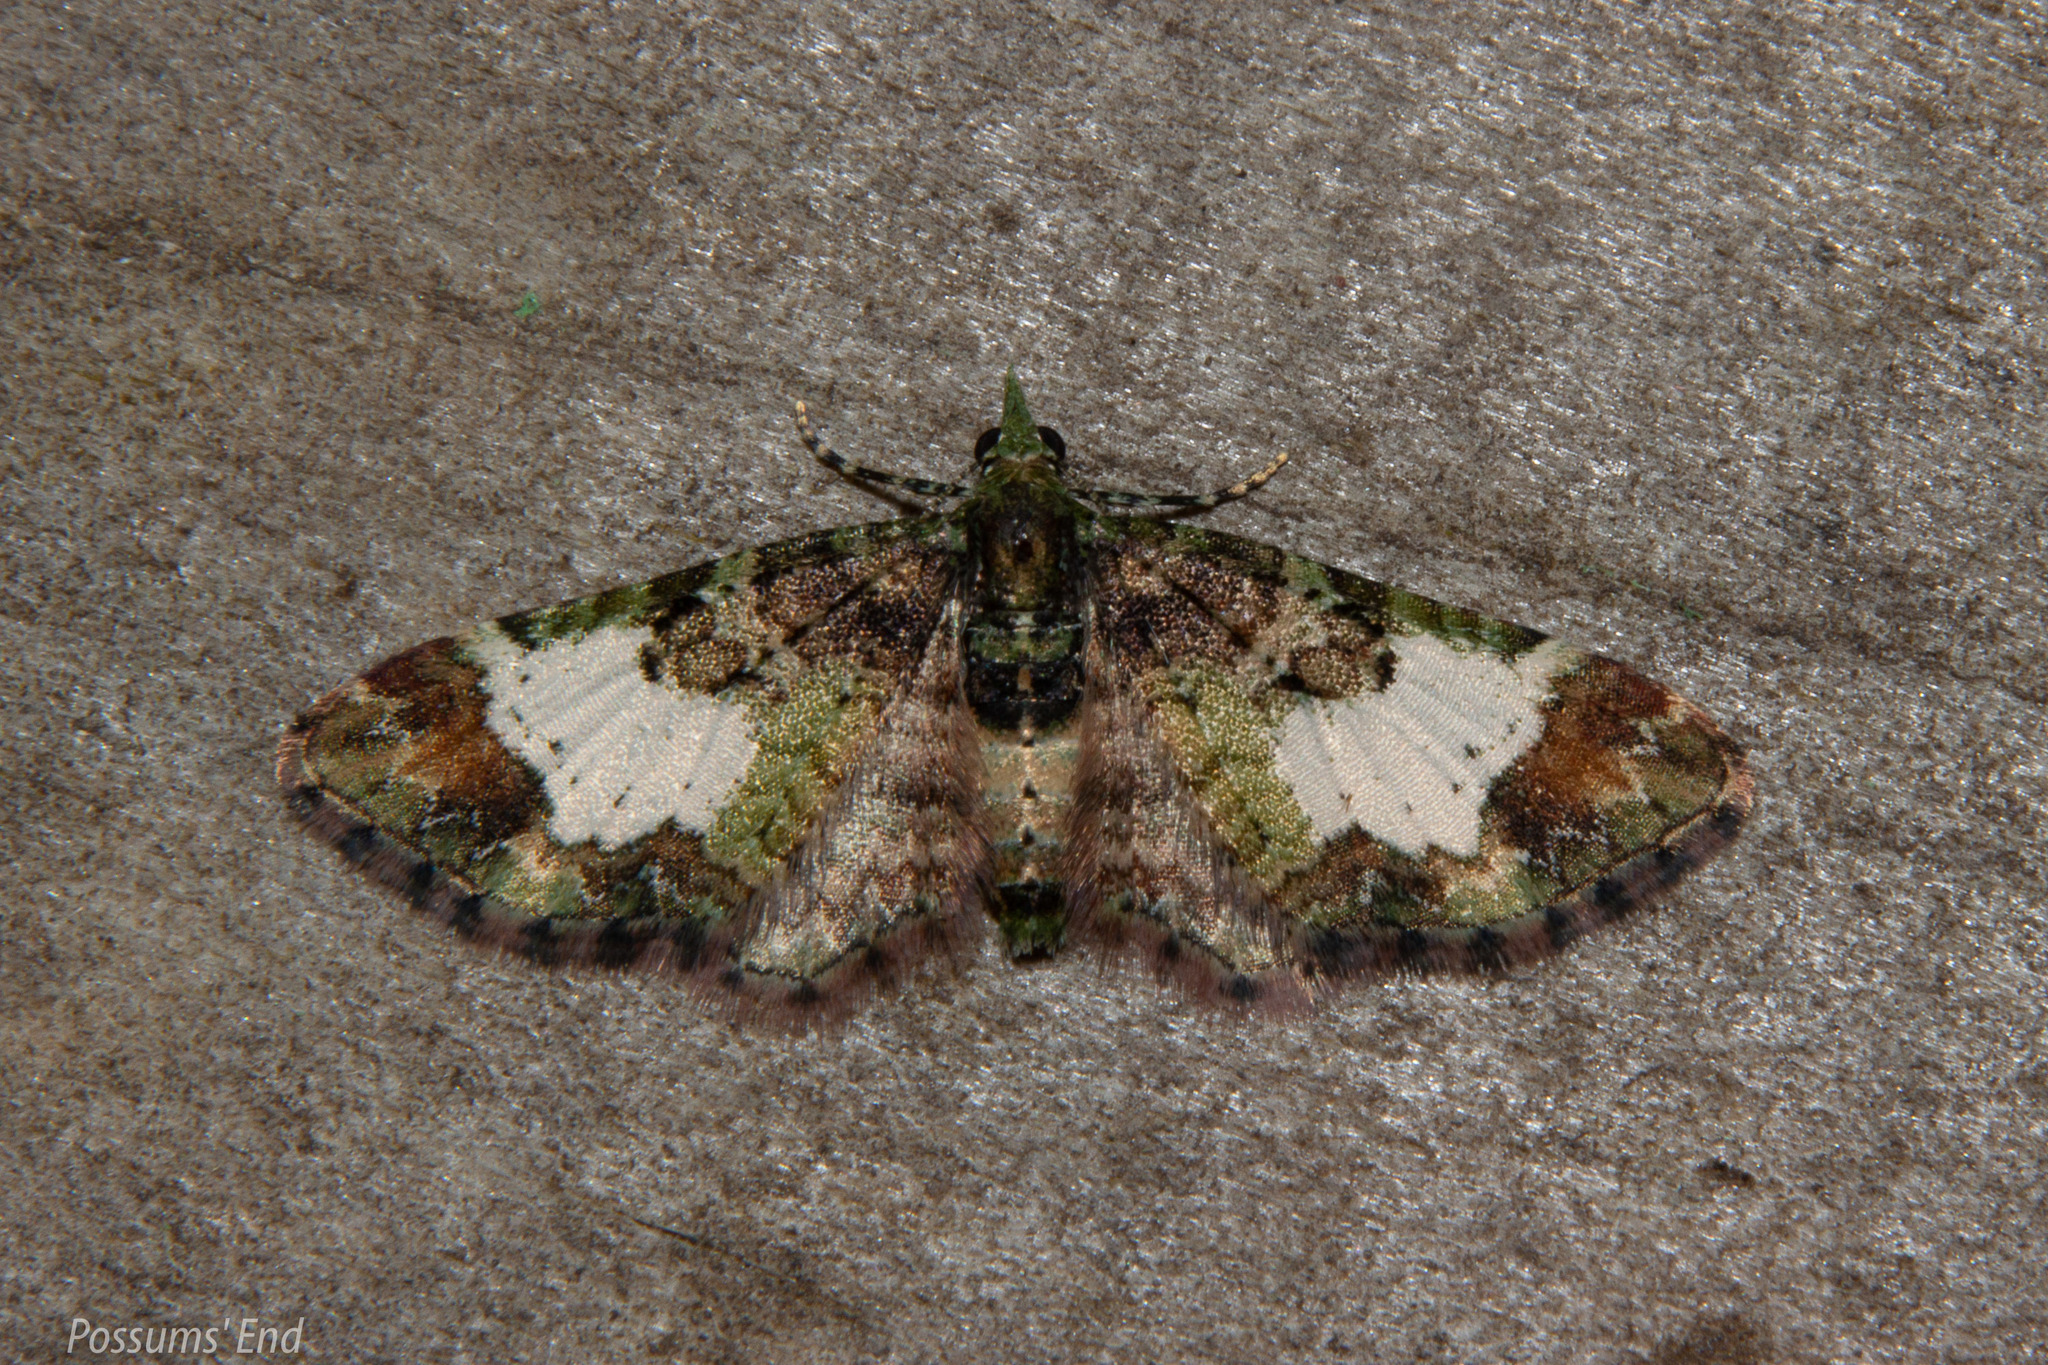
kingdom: Animalia
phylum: Arthropoda
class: Insecta
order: Lepidoptera
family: Geometridae
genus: Pasiphila
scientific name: Pasiphila sandycias
